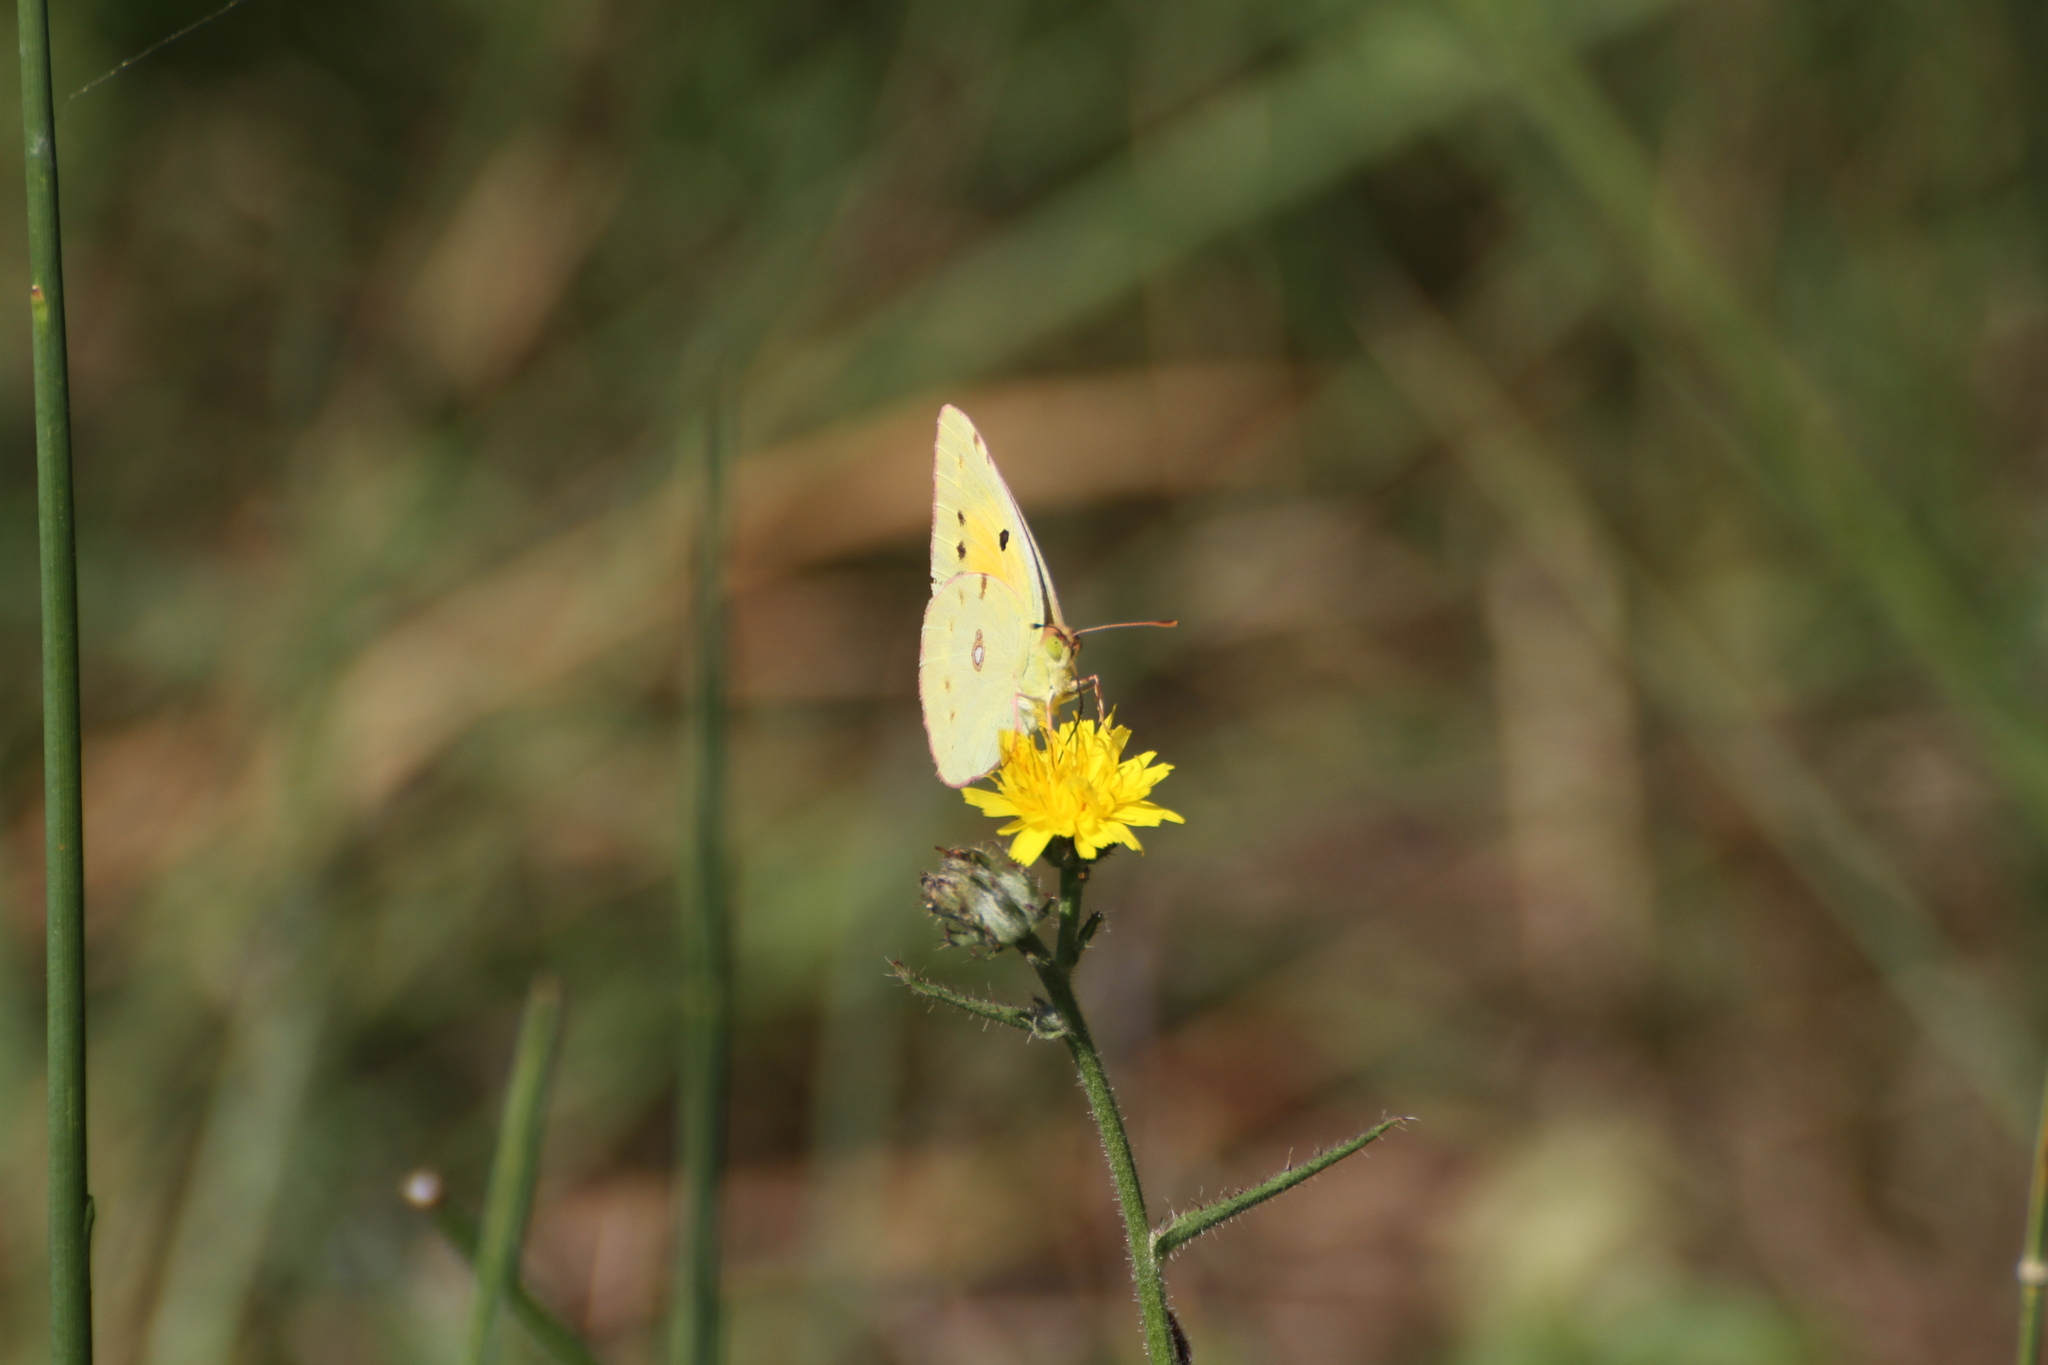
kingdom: Animalia
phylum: Arthropoda
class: Insecta
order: Lepidoptera
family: Pieridae
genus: Colias
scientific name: Colias croceus
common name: Clouded yellow
